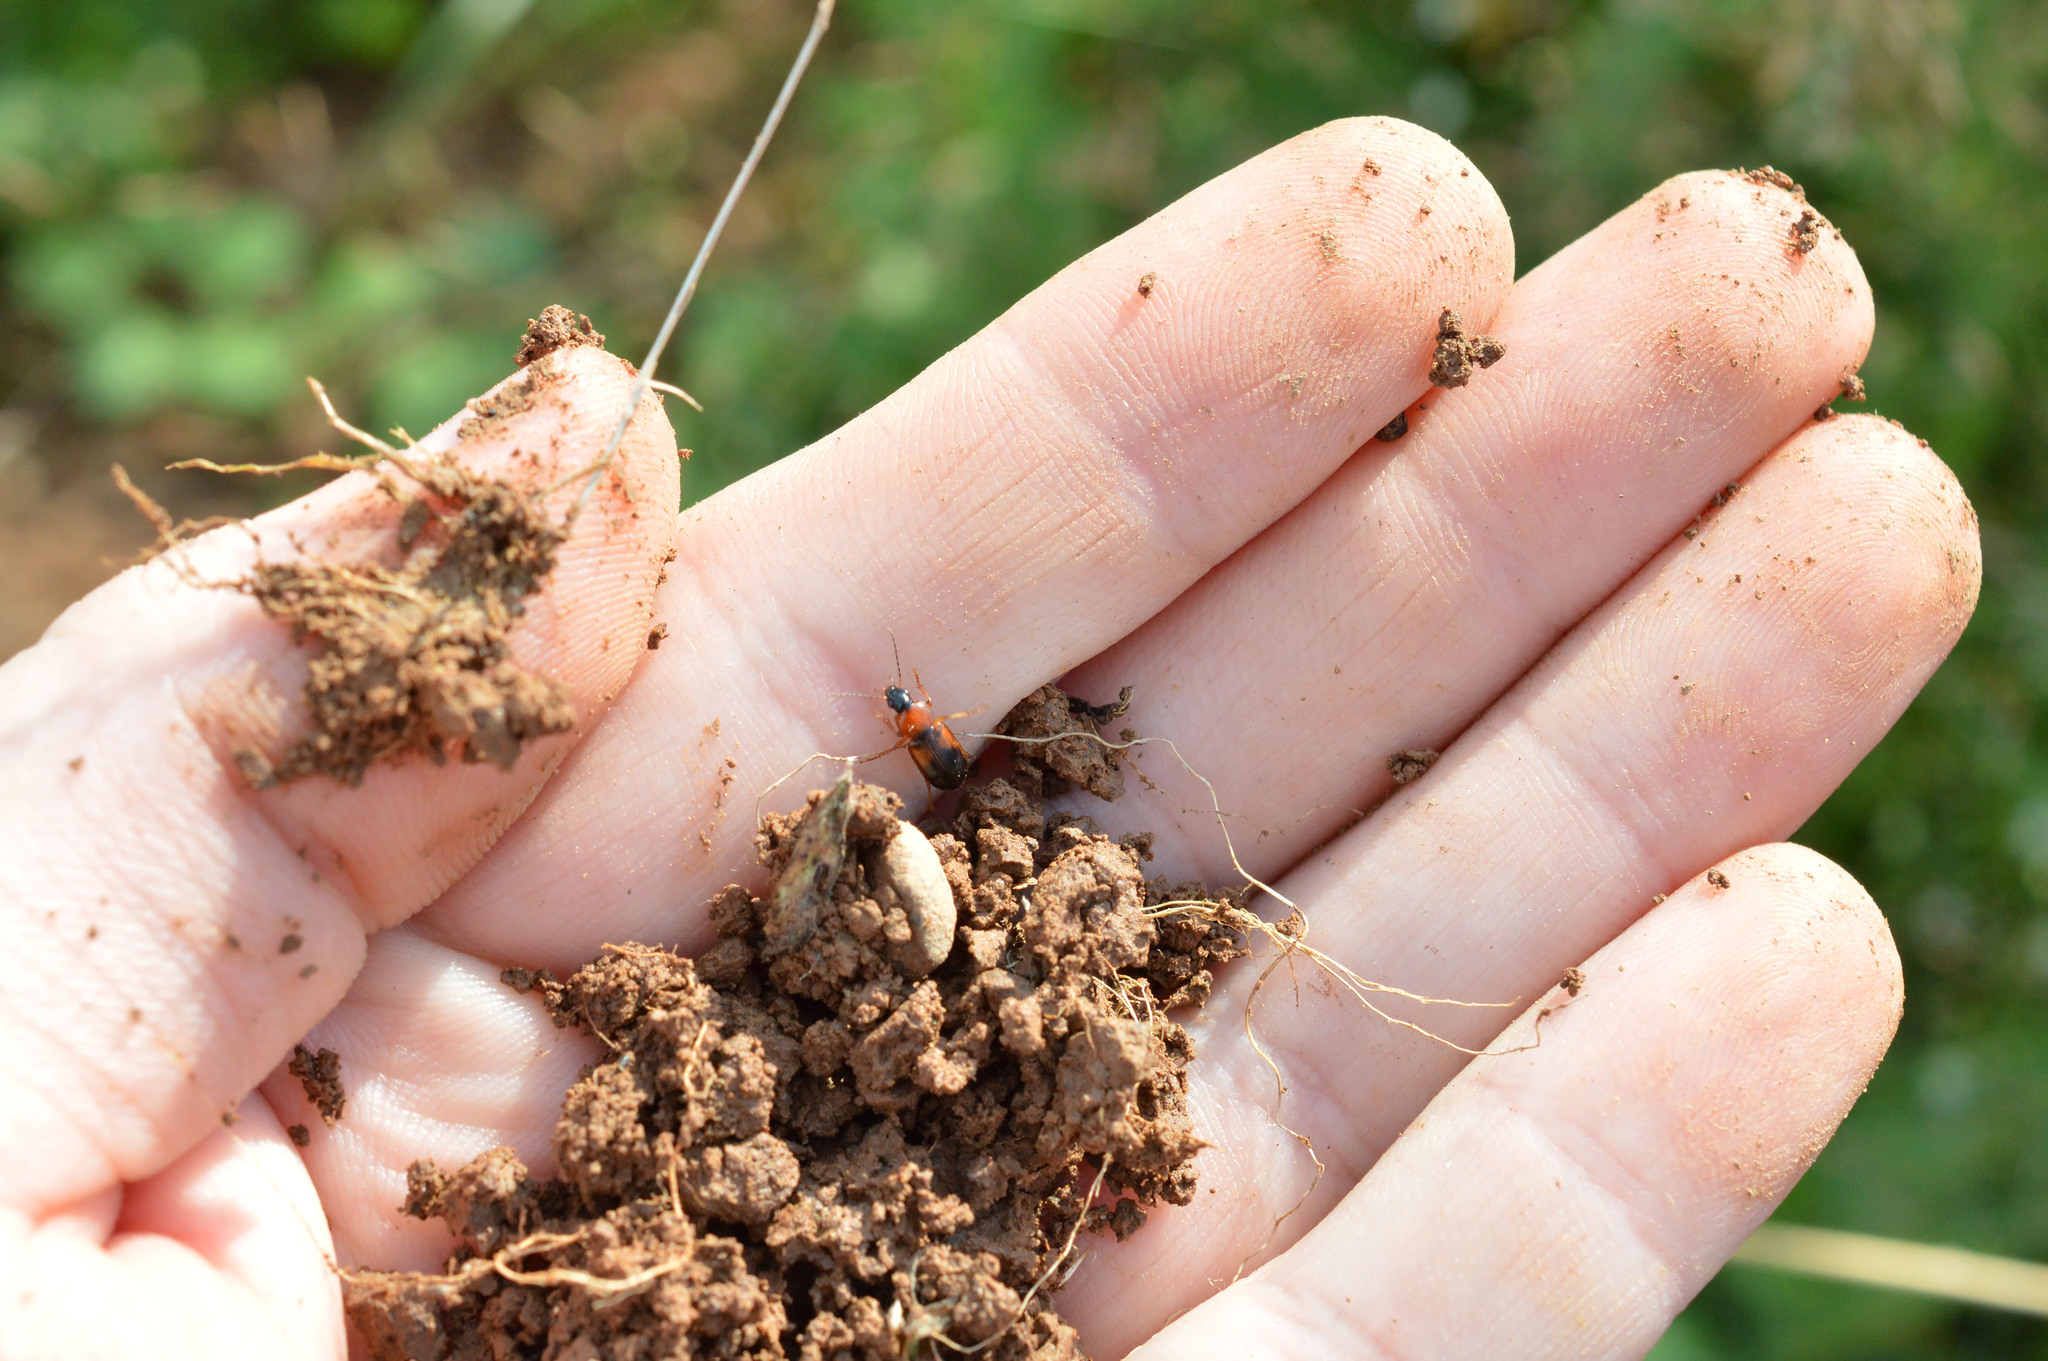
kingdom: Animalia
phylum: Arthropoda
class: Insecta
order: Coleoptera
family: Carabidae
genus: Stenolophus
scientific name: Stenolophus teutonus
